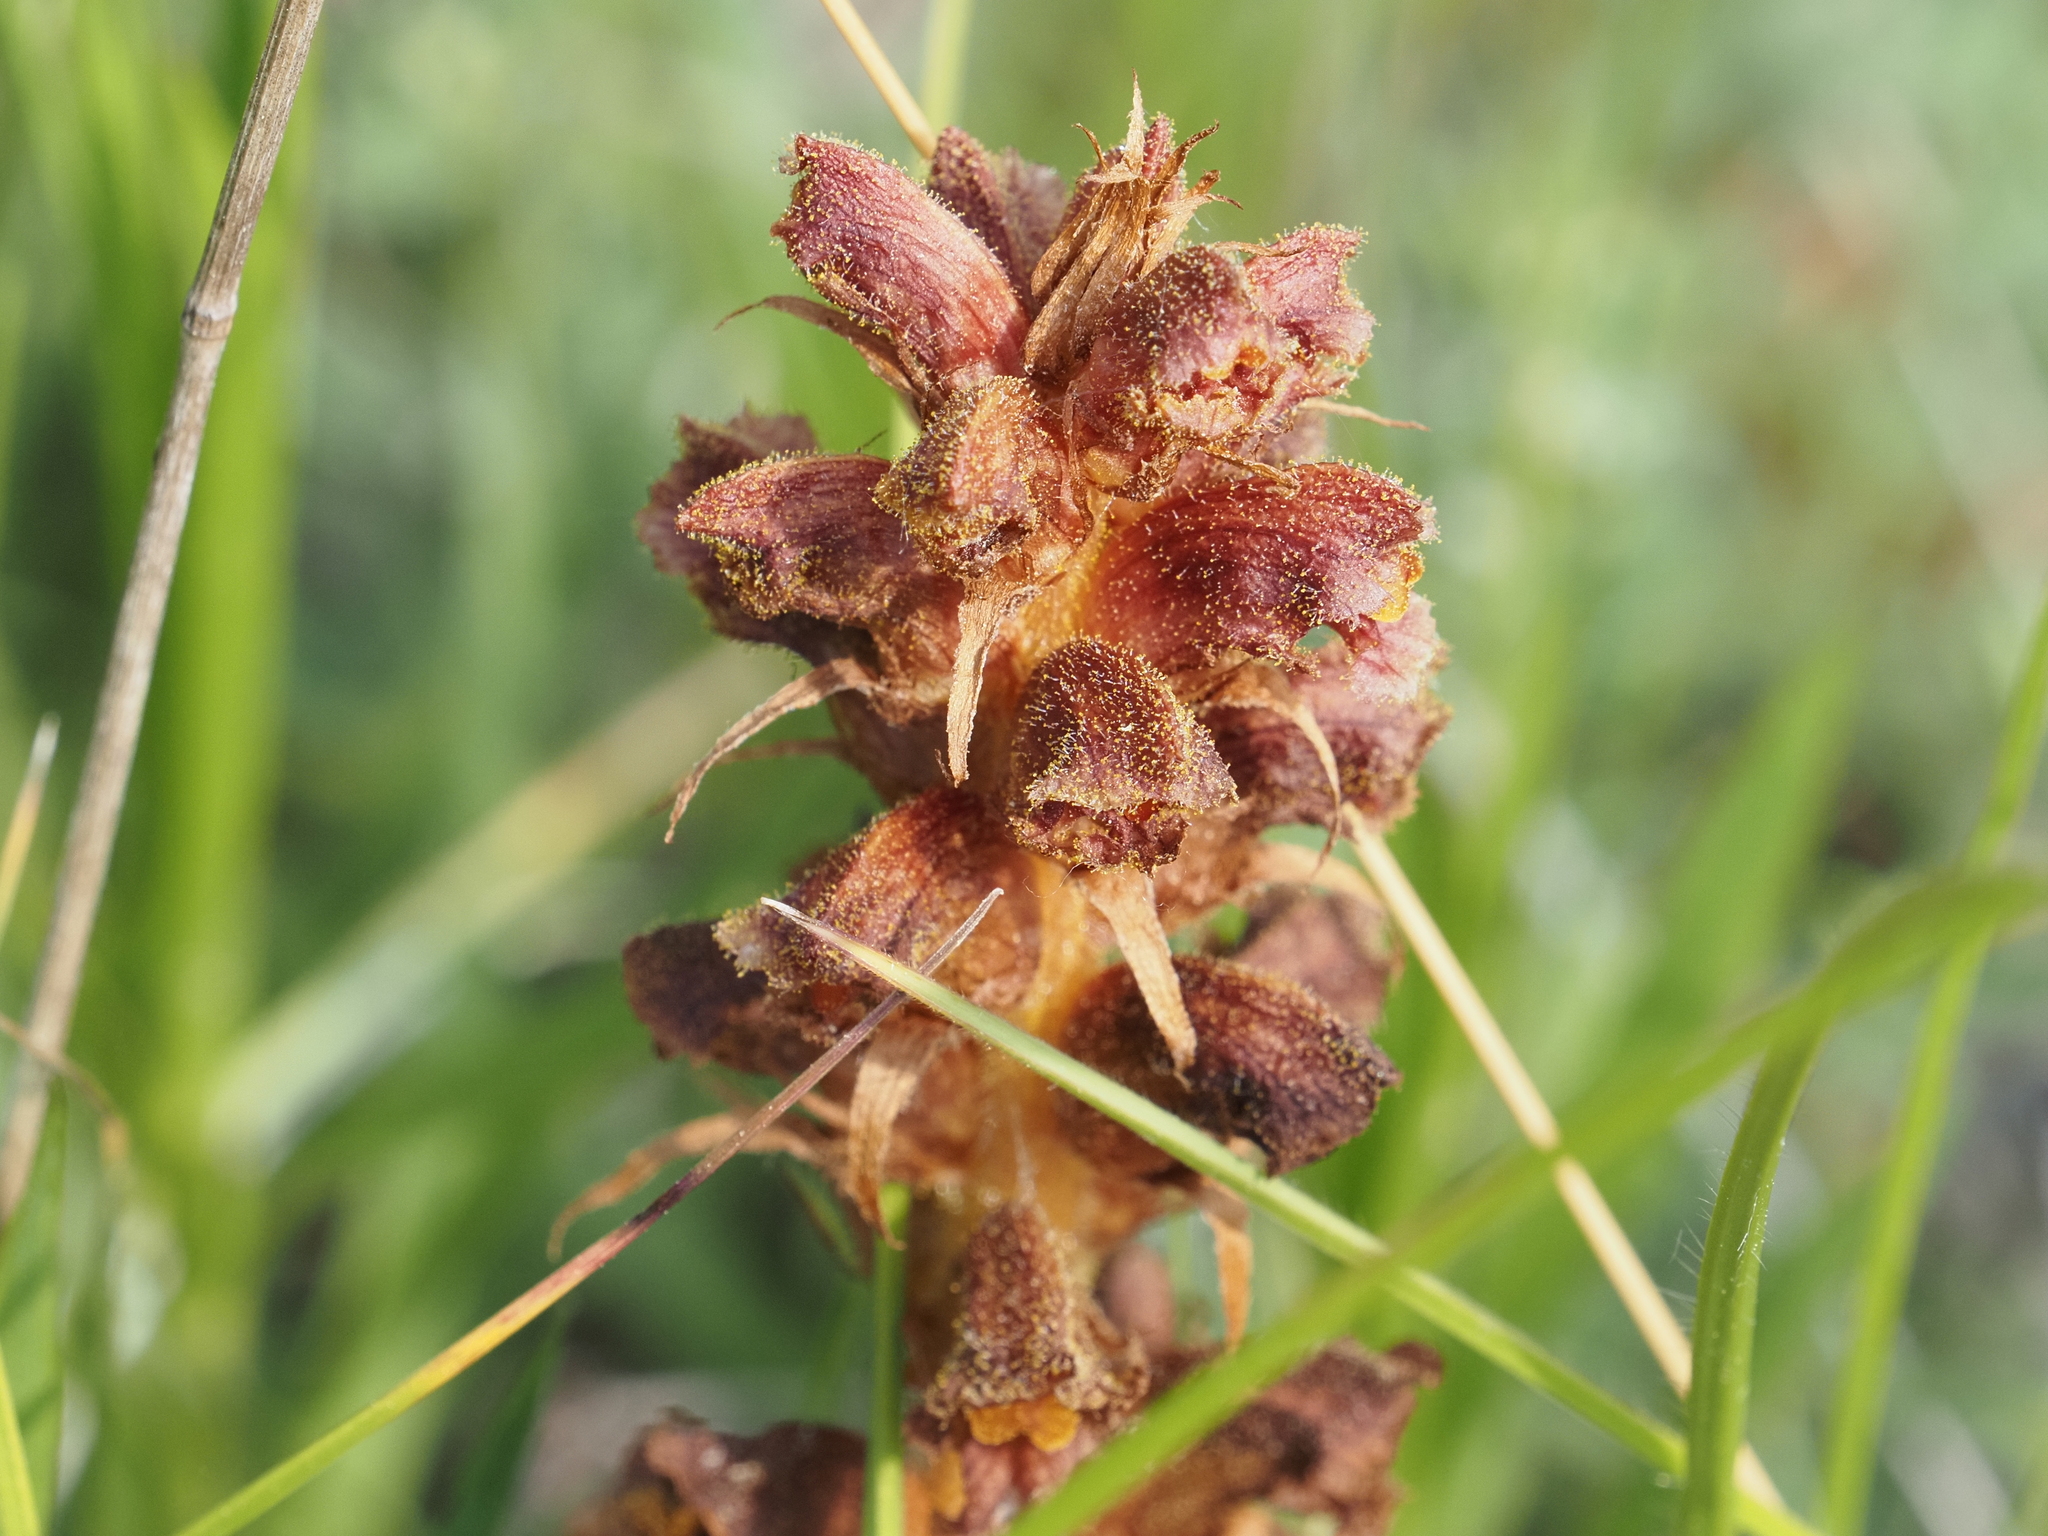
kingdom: Plantae
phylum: Tracheophyta
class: Magnoliopsida
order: Lamiales
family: Orobanchaceae
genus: Orobanche
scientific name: Orobanche gracilis
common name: Slender broomrape
